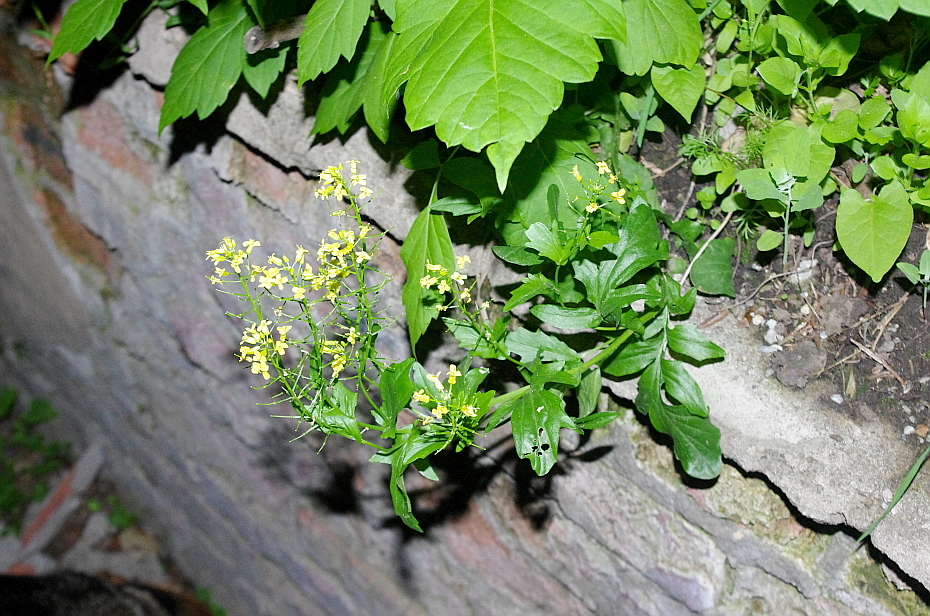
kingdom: Plantae
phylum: Tracheophyta
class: Magnoliopsida
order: Brassicales
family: Brassicaceae
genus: Barbarea
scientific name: Barbarea vulgaris
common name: Cressy-greens
